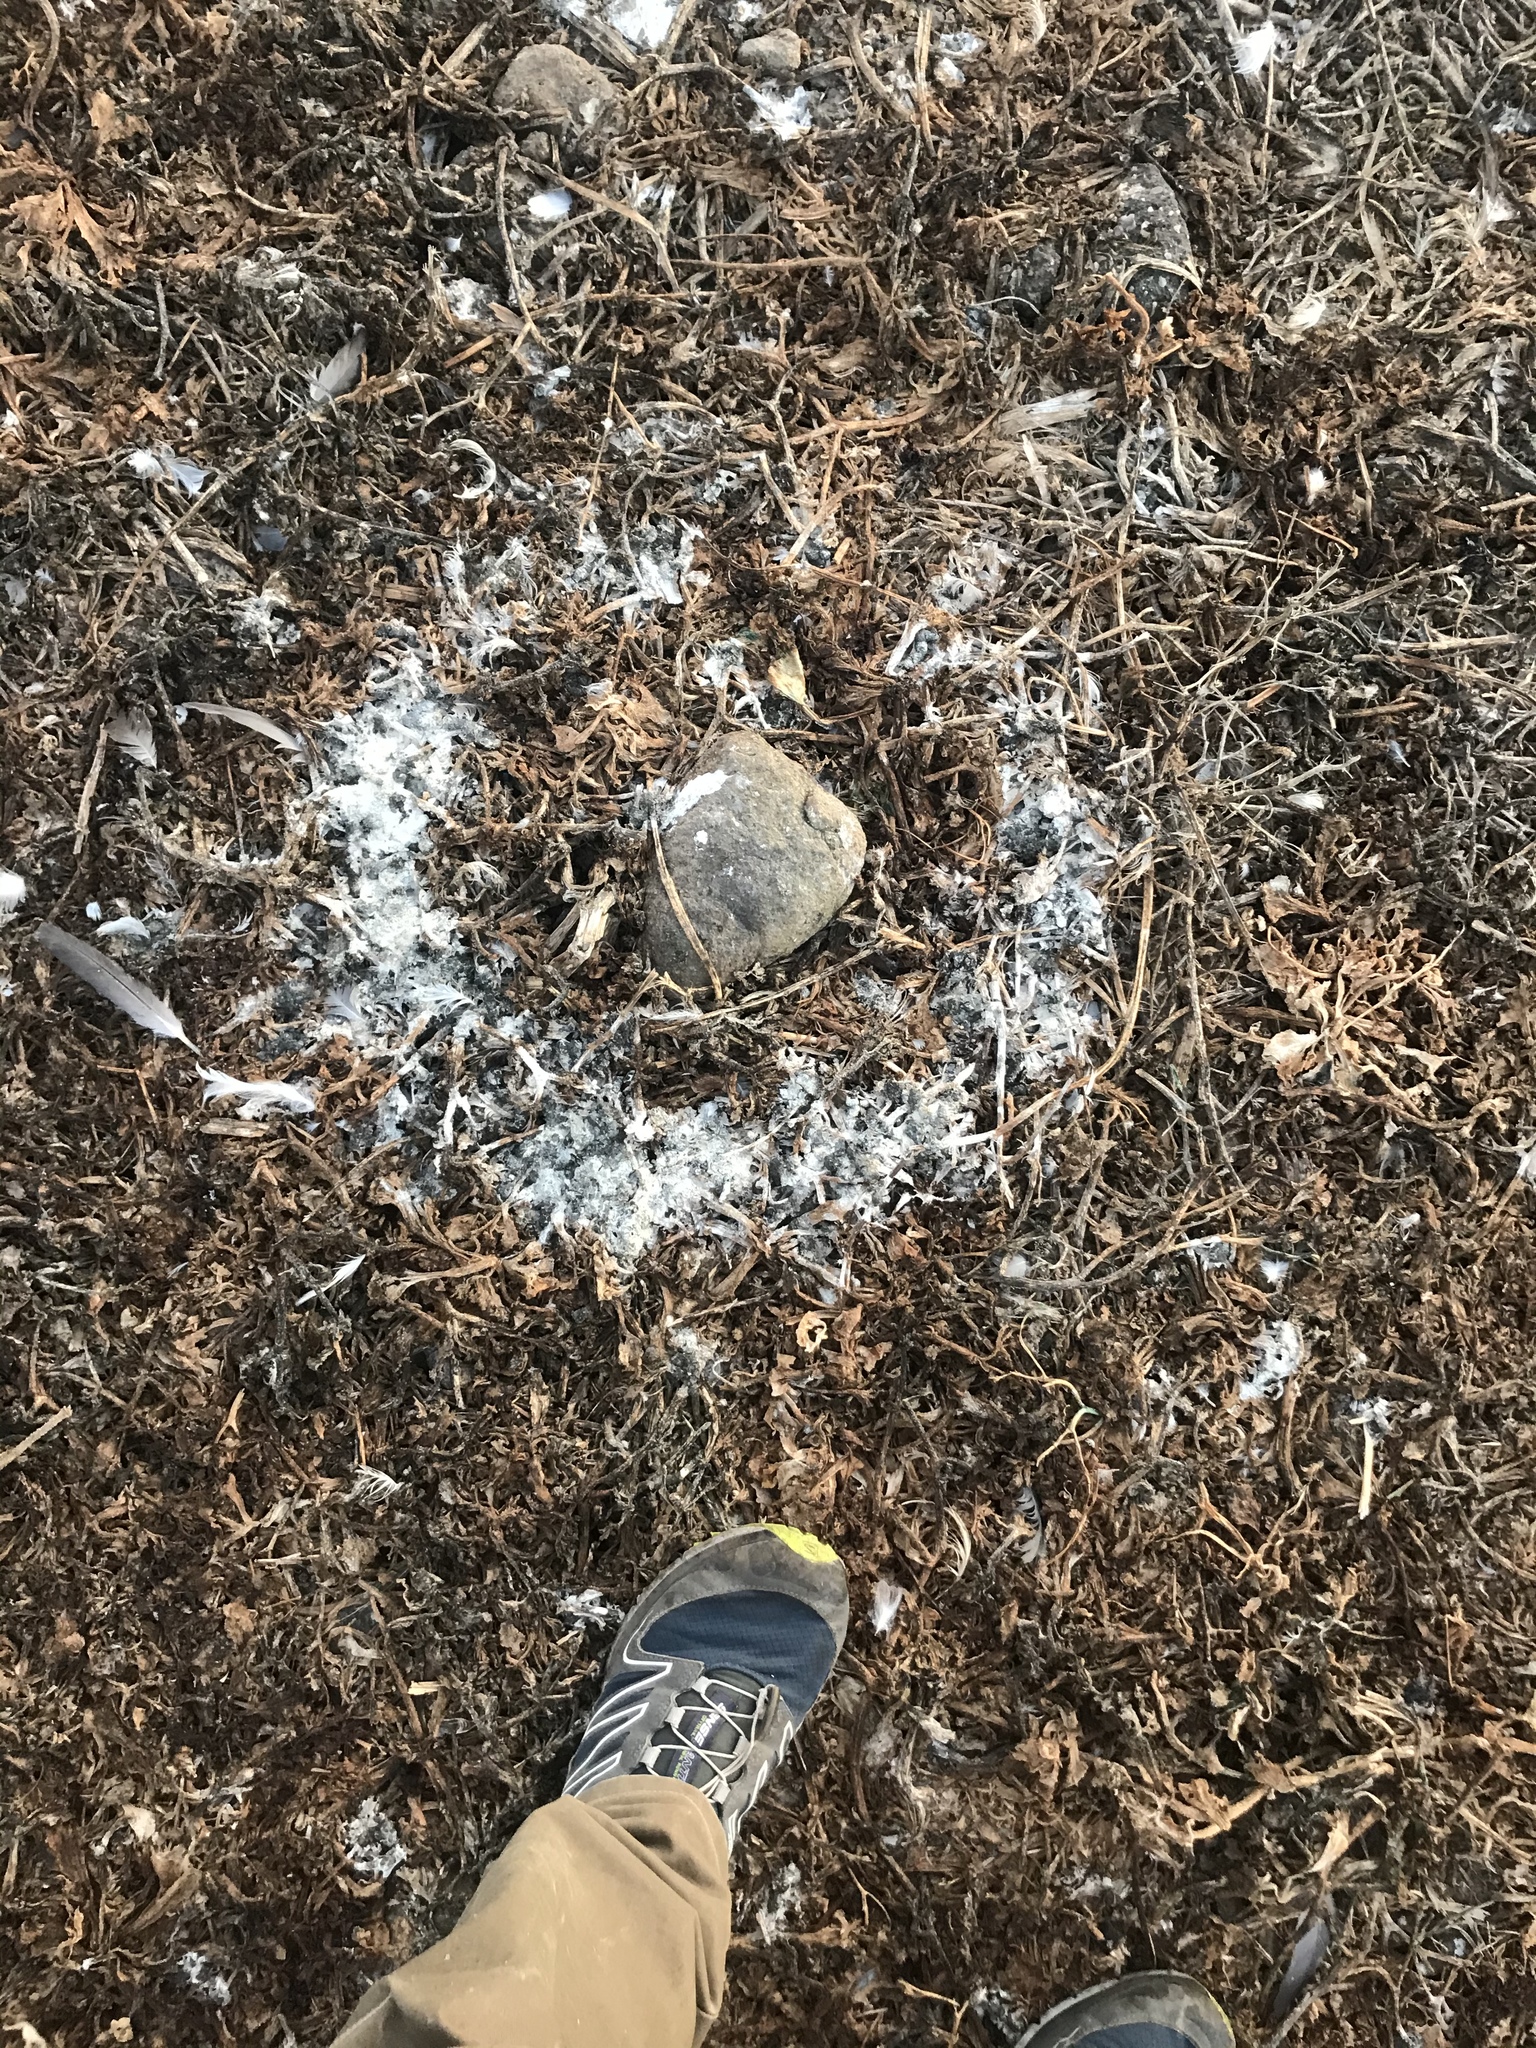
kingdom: Animalia
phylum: Chordata
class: Aves
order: Charadriiformes
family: Laridae
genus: Larus
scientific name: Larus occidentalis
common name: Western gull
